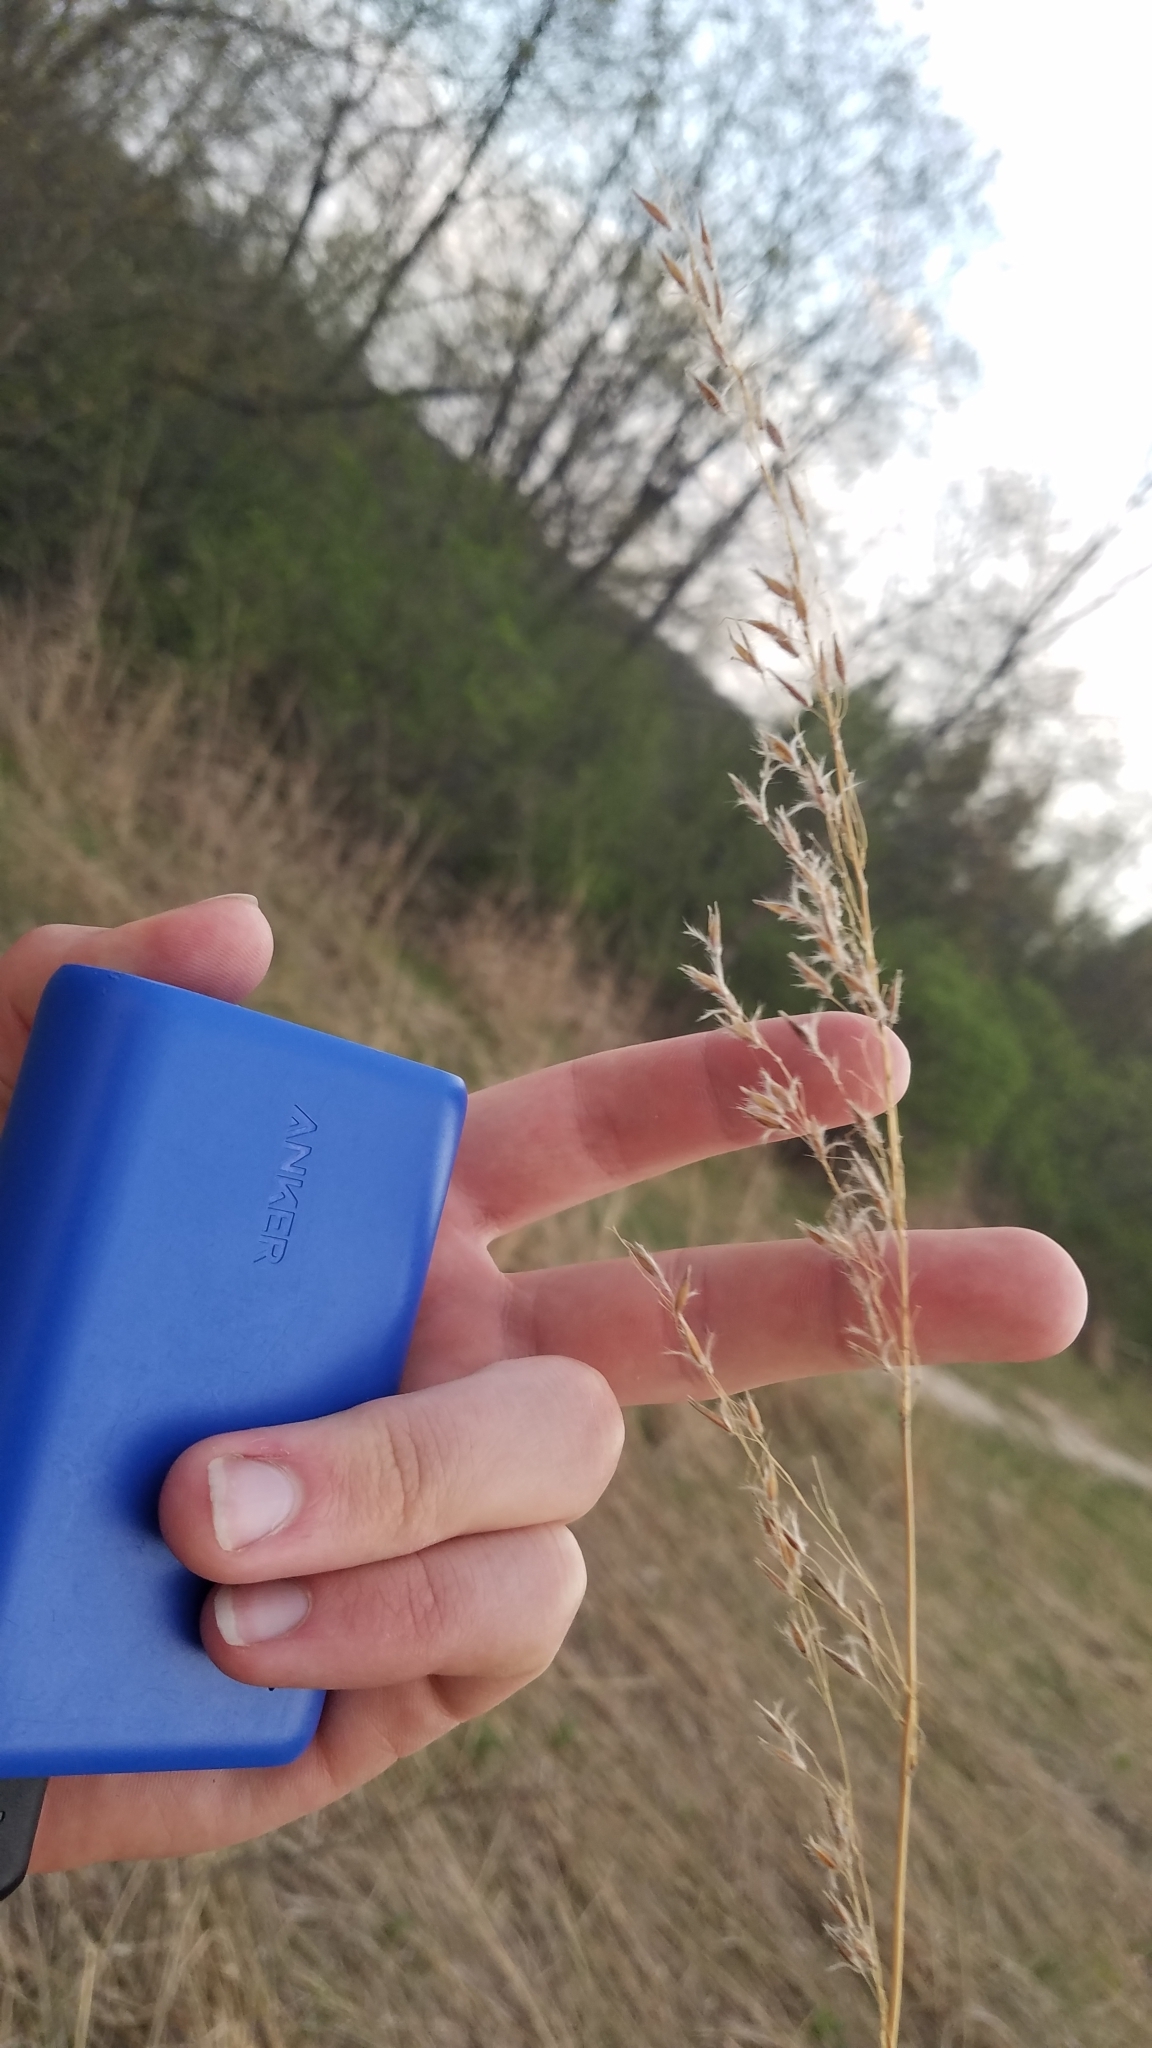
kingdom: Plantae
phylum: Tracheophyta
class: Liliopsida
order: Poales
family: Poaceae
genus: Sorghastrum
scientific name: Sorghastrum nutans
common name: Indian grass
